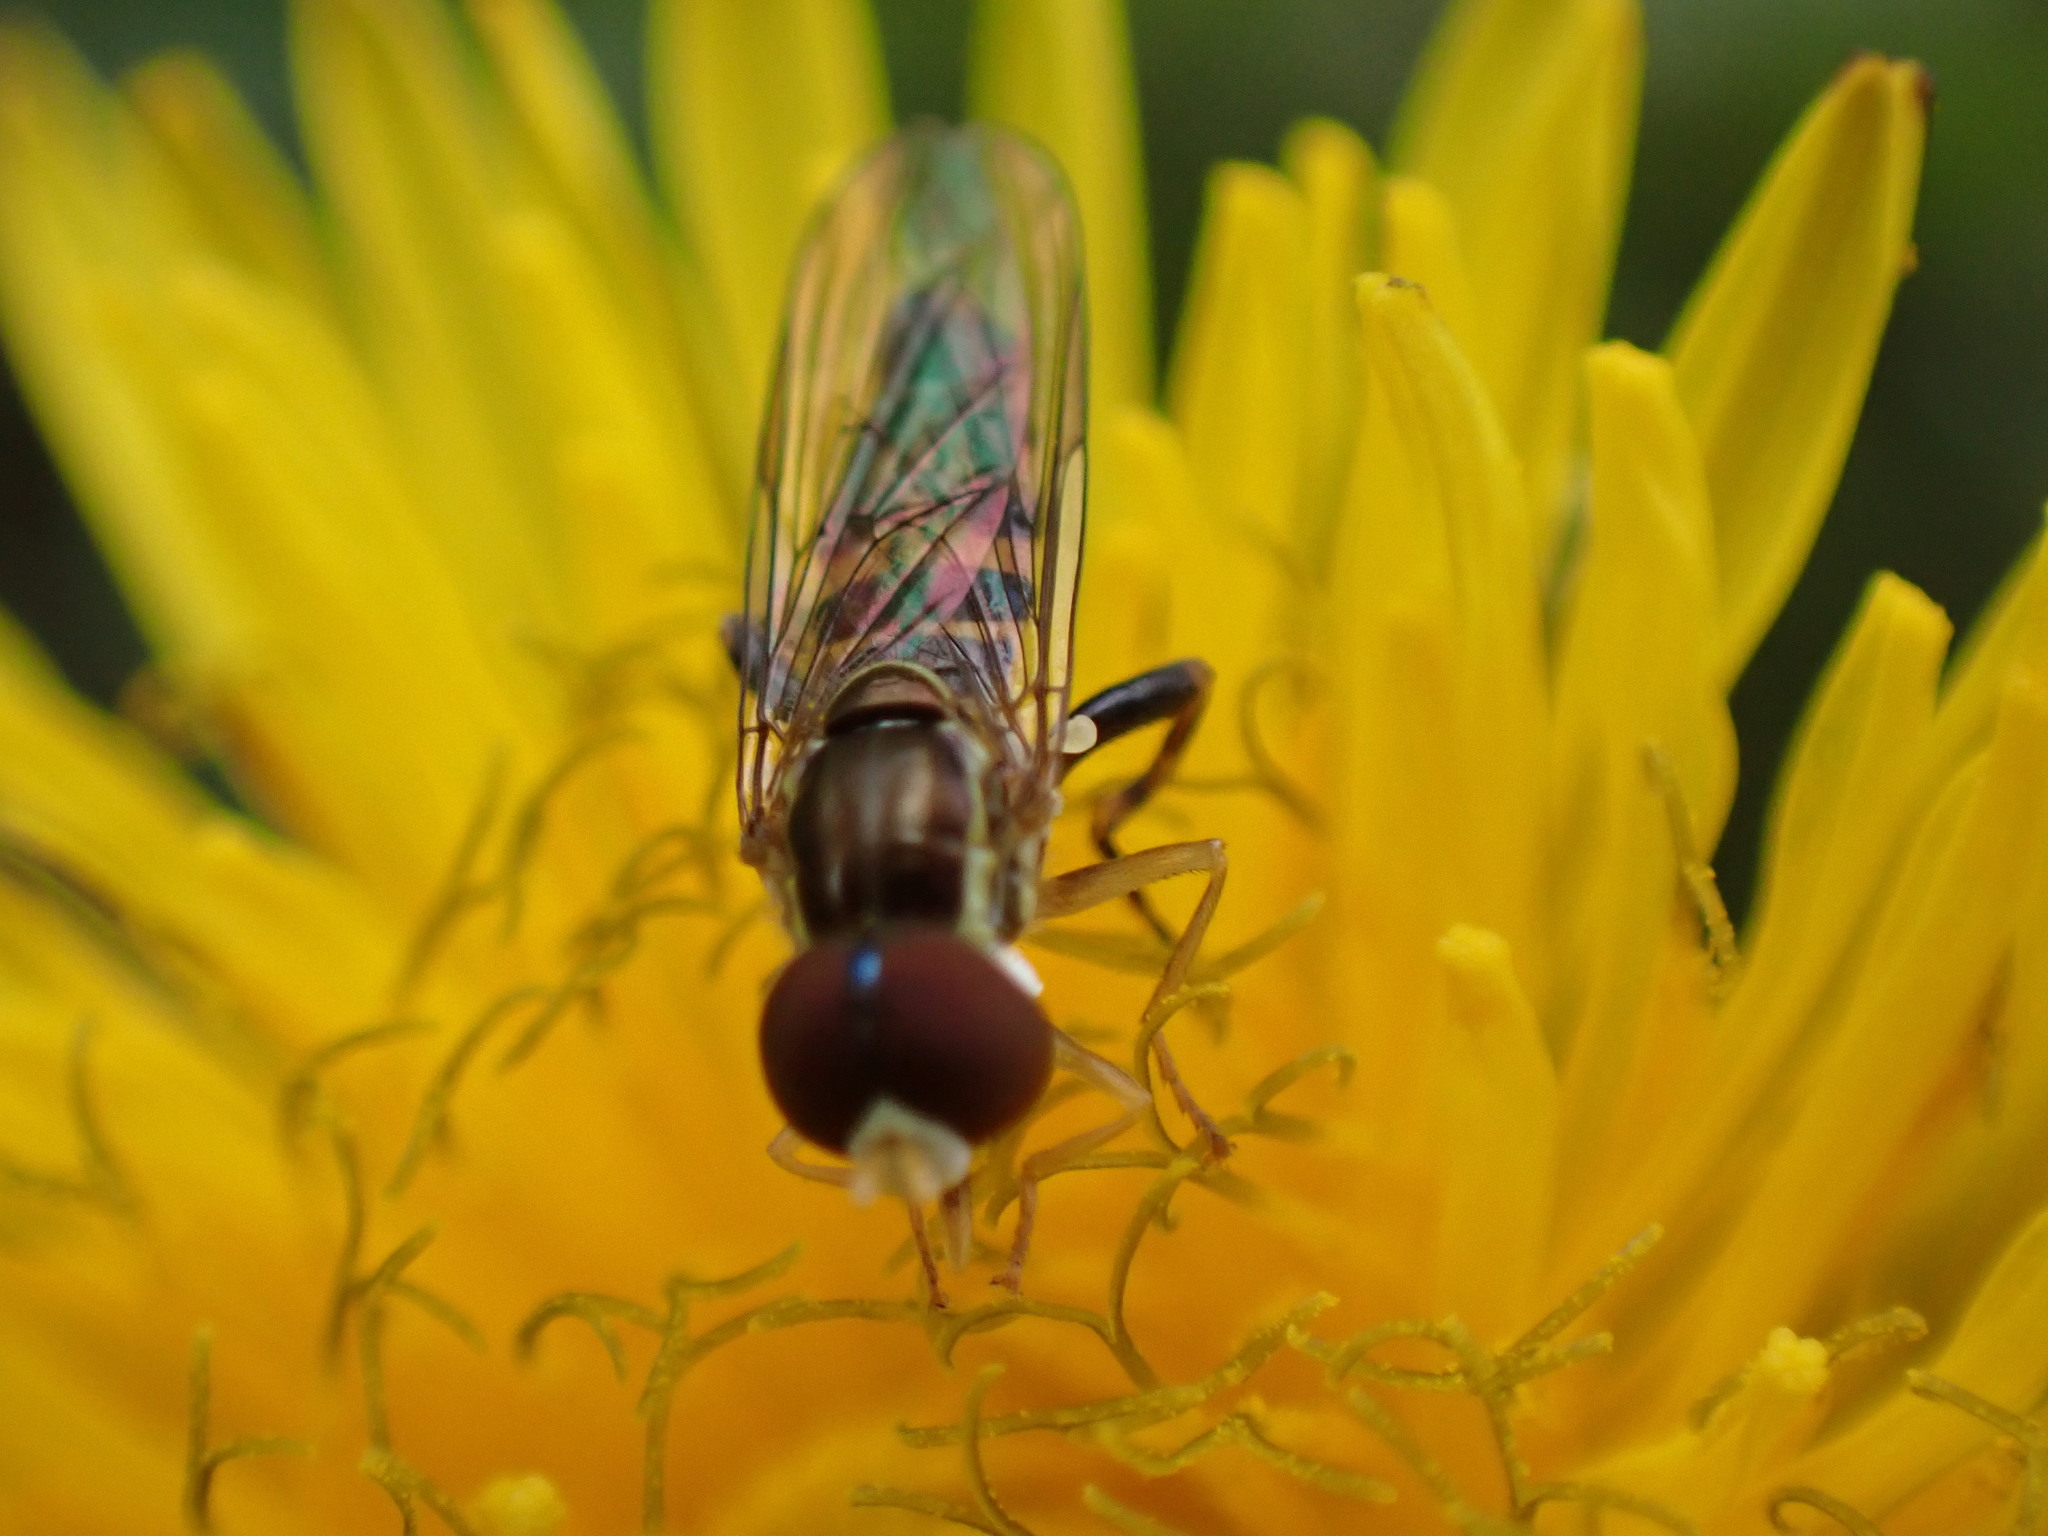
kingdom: Animalia
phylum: Arthropoda
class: Insecta
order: Diptera
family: Syrphidae
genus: Toxomerus
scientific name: Toxomerus geminatus
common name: Eastern calligrapher
